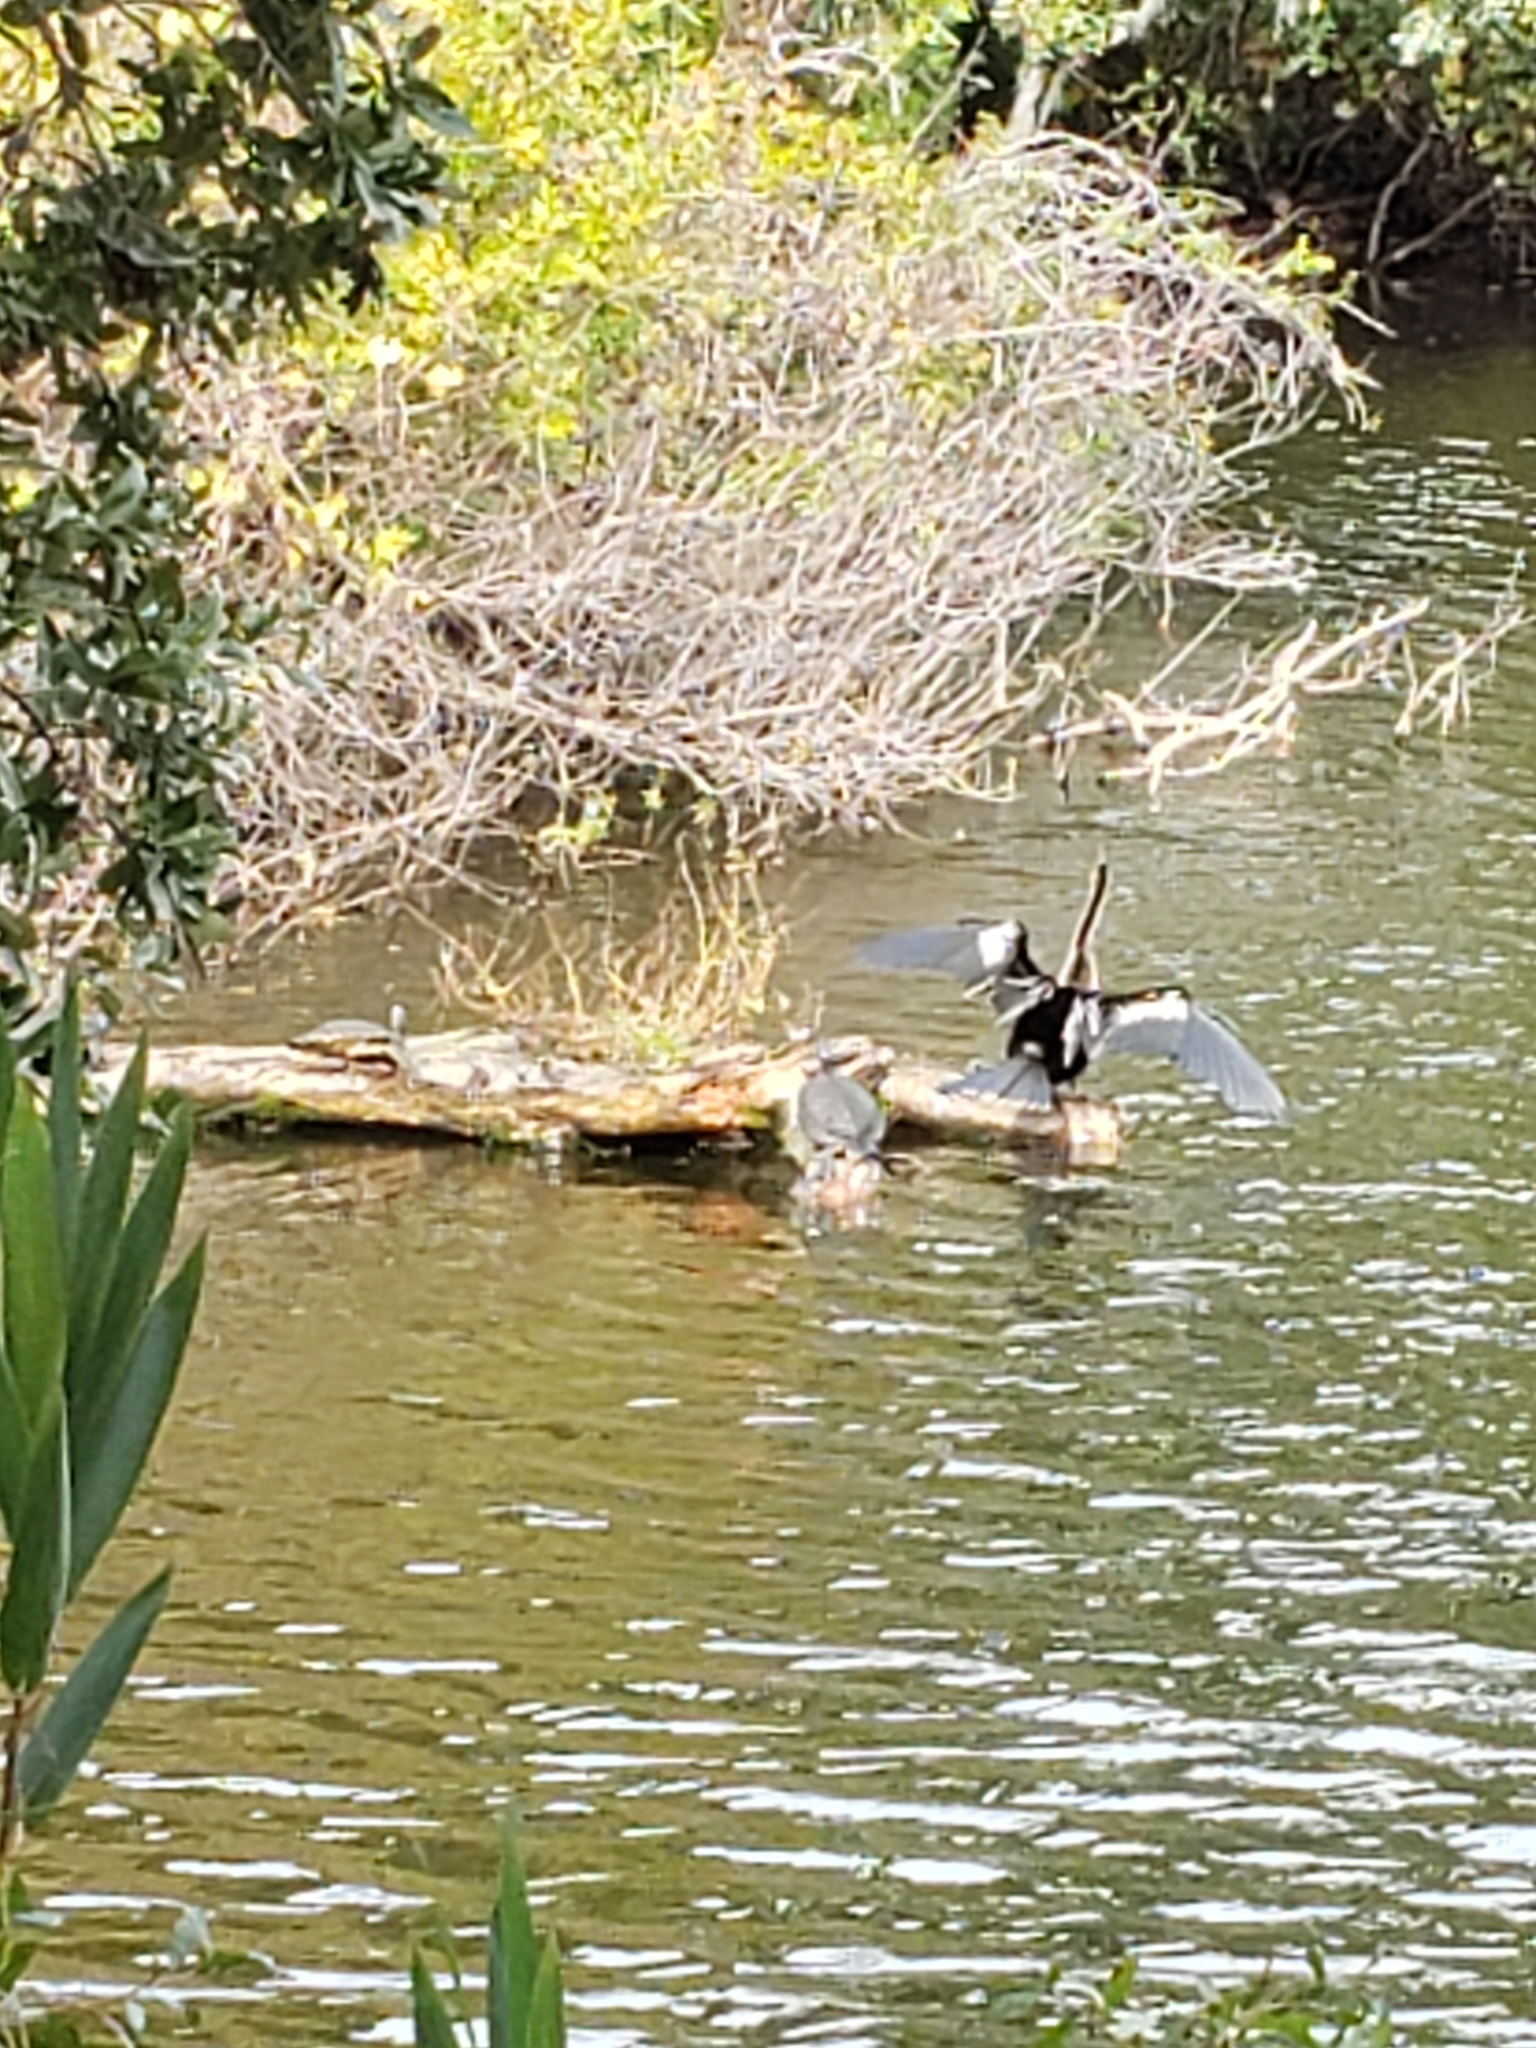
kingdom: Animalia
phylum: Chordata
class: Aves
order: Suliformes
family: Anhingidae
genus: Anhinga
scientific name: Anhinga anhinga
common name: Anhinga
